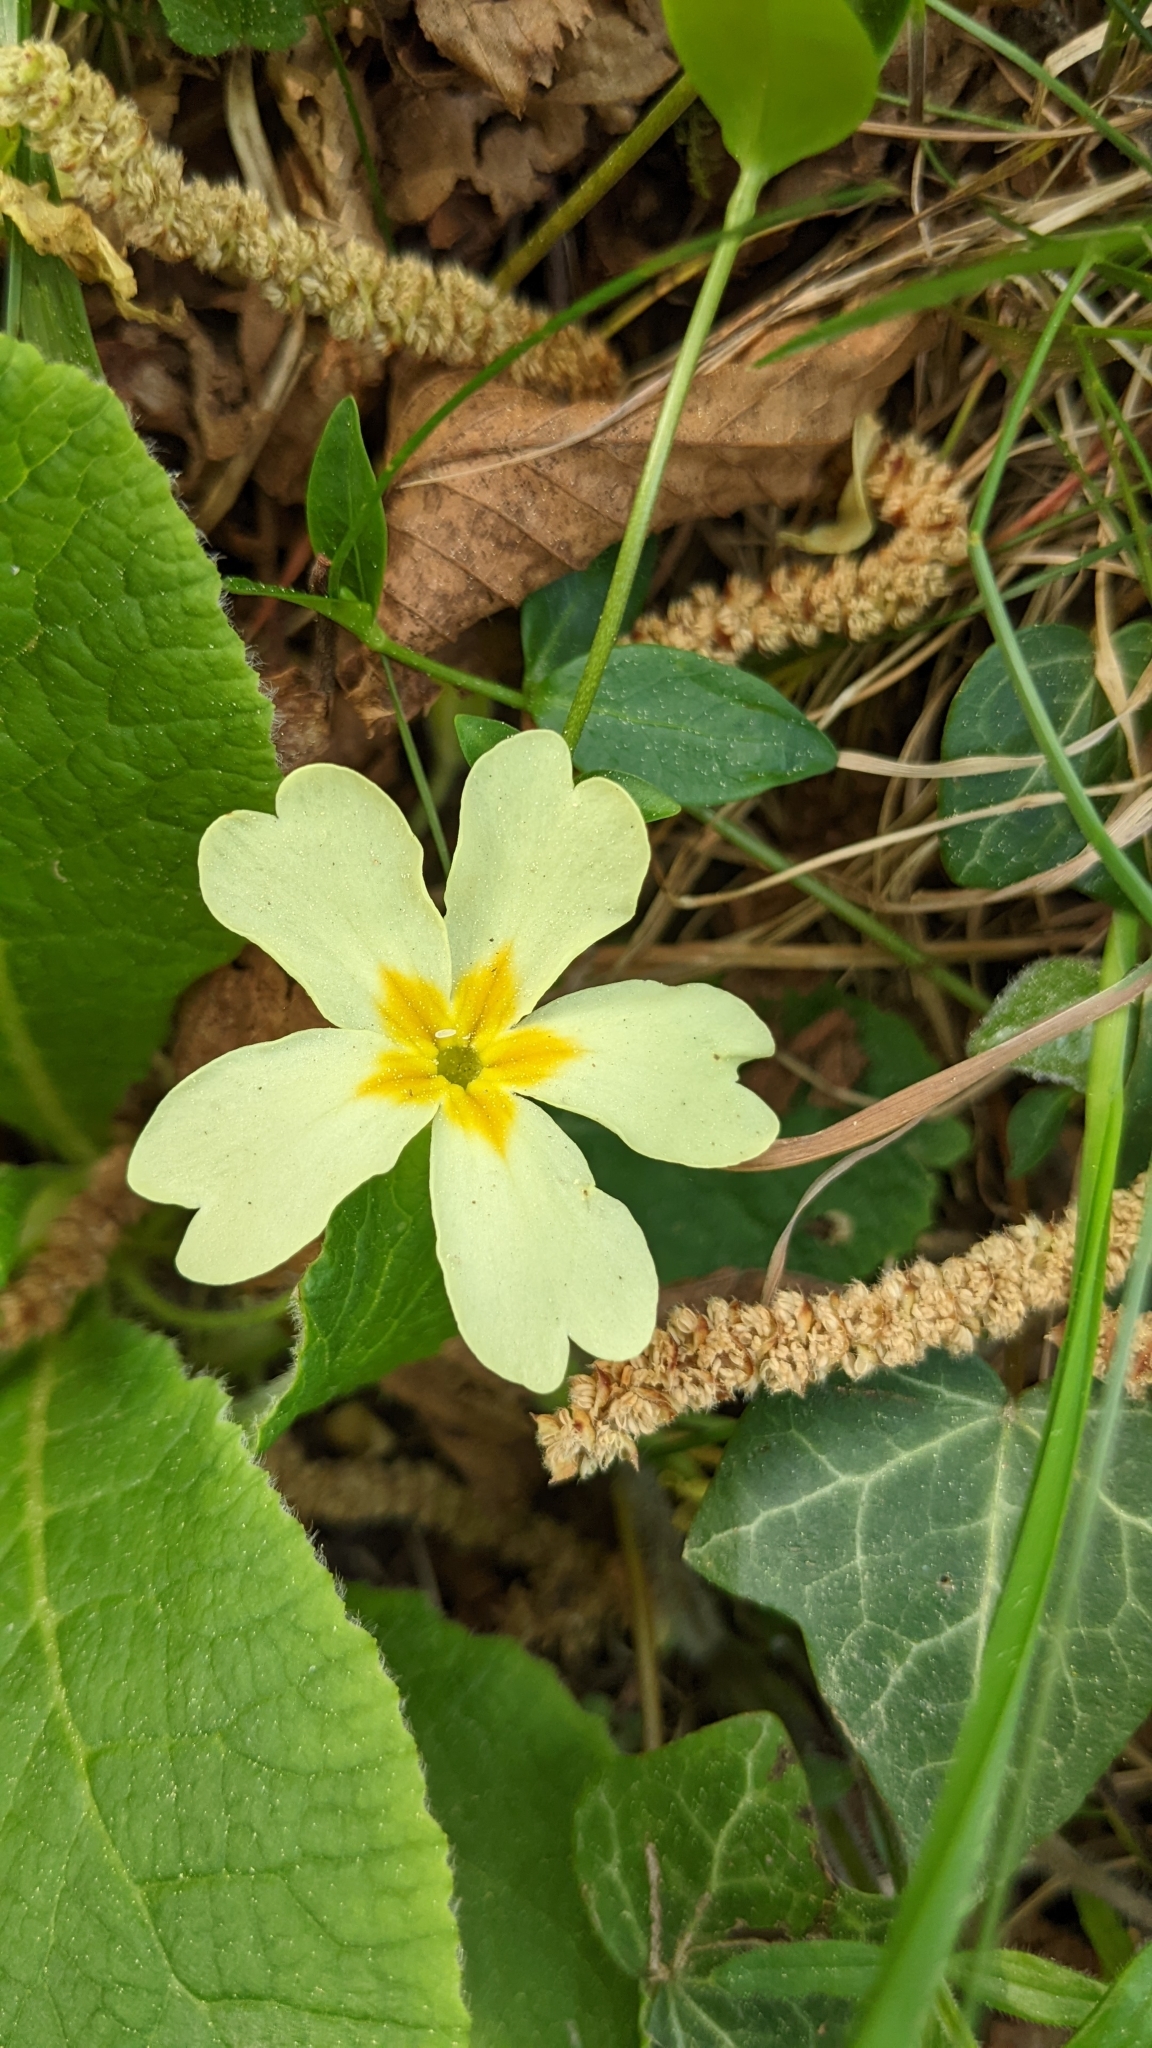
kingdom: Plantae
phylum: Tracheophyta
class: Magnoliopsida
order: Ericales
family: Primulaceae
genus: Primula
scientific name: Primula vulgaris
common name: Primrose
